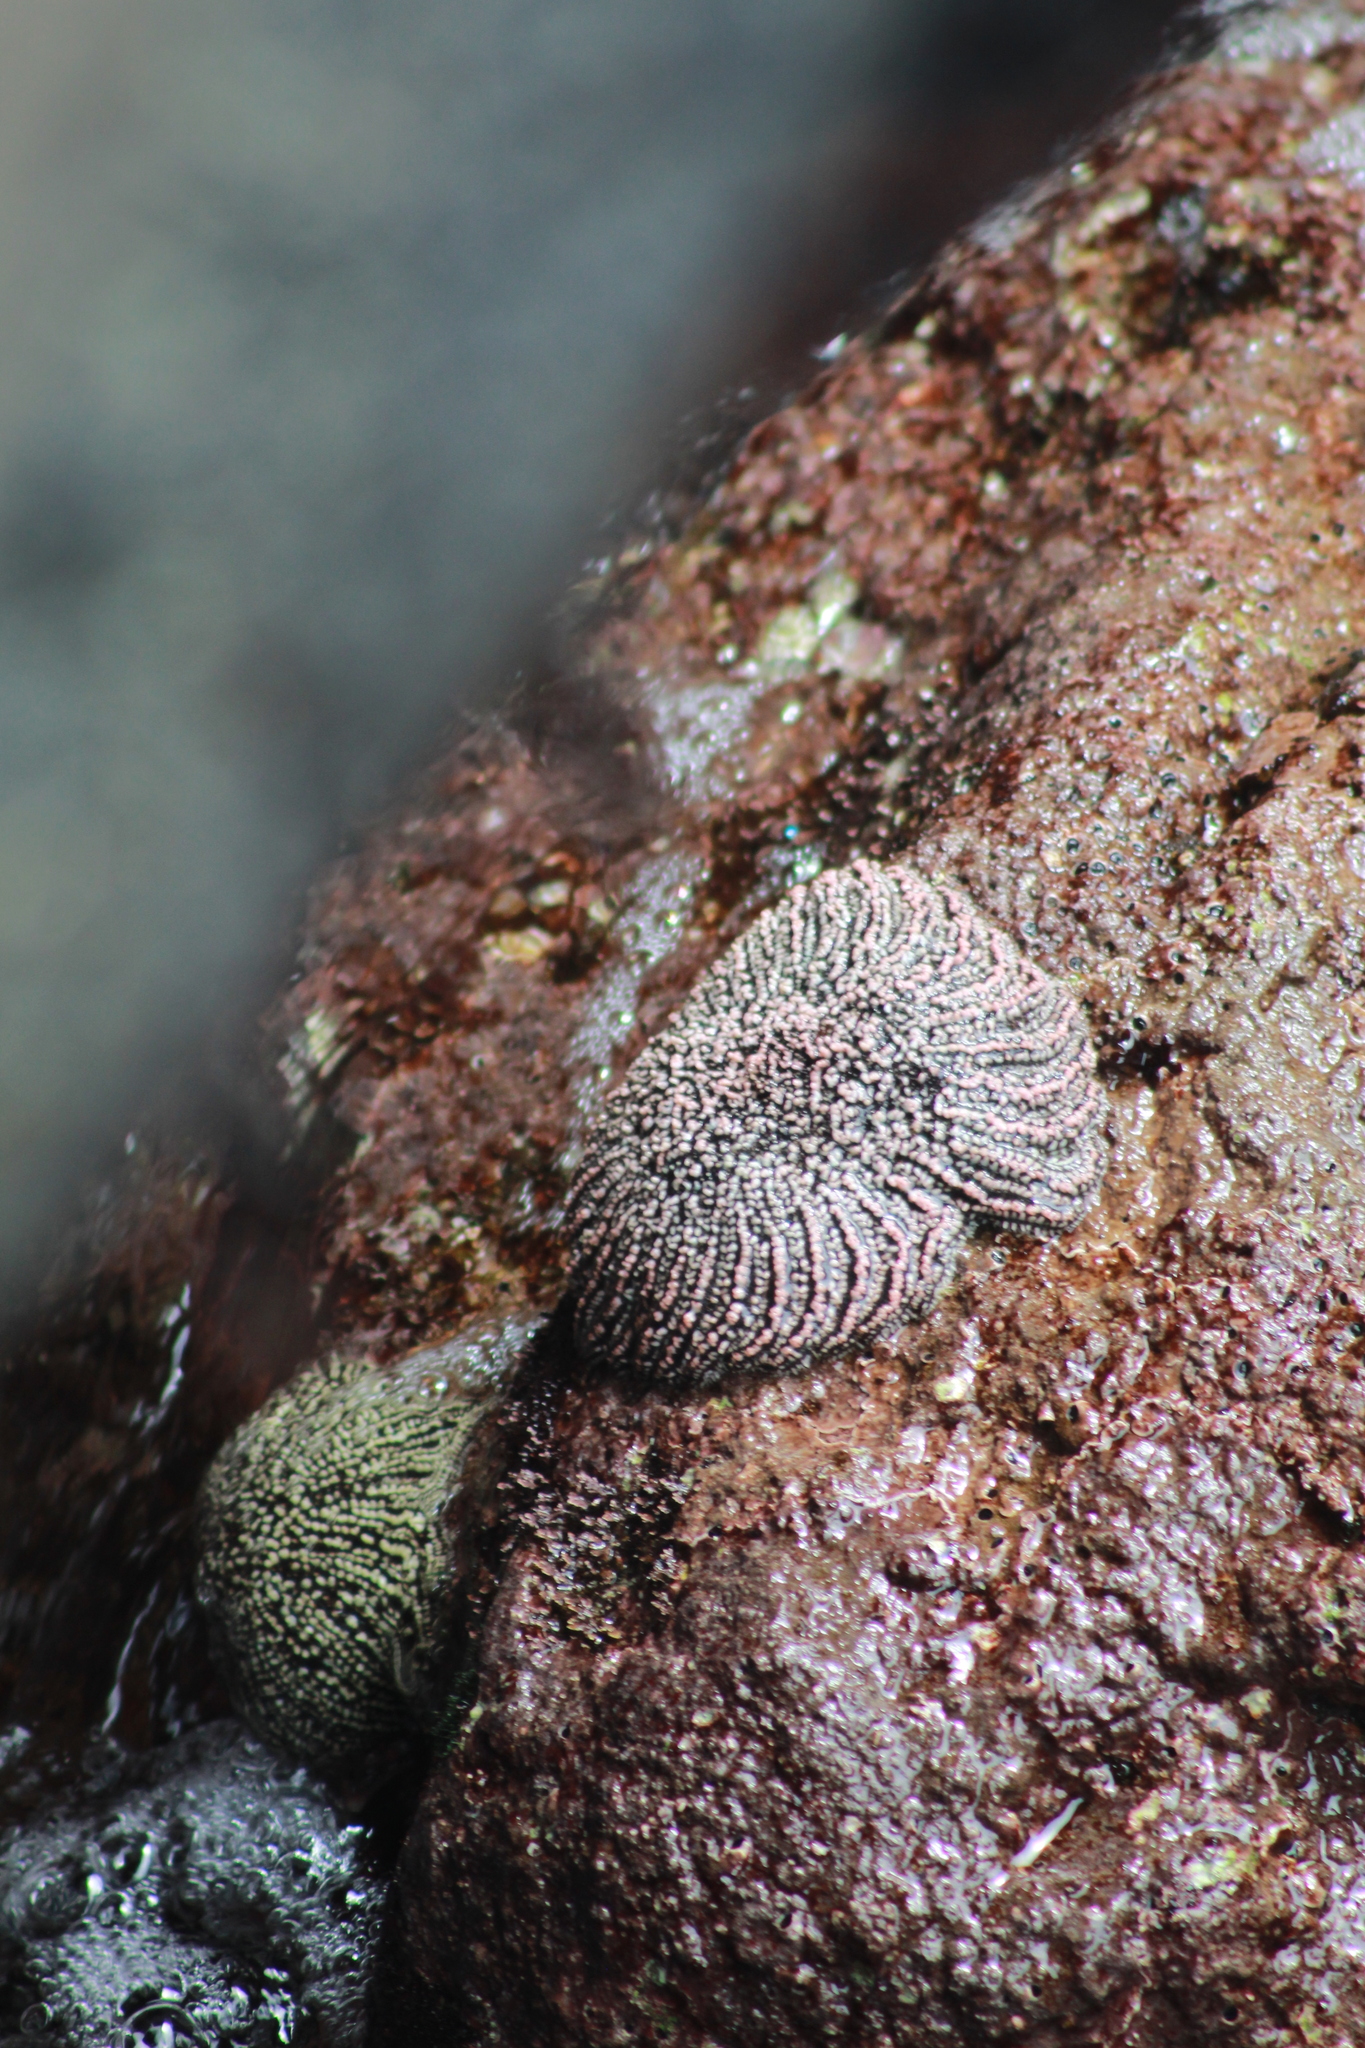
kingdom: Animalia
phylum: Echinodermata
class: Asteroidea
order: Forcipulatida
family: Heliasteridae
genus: Heliaster
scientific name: Heliaster helianthus
